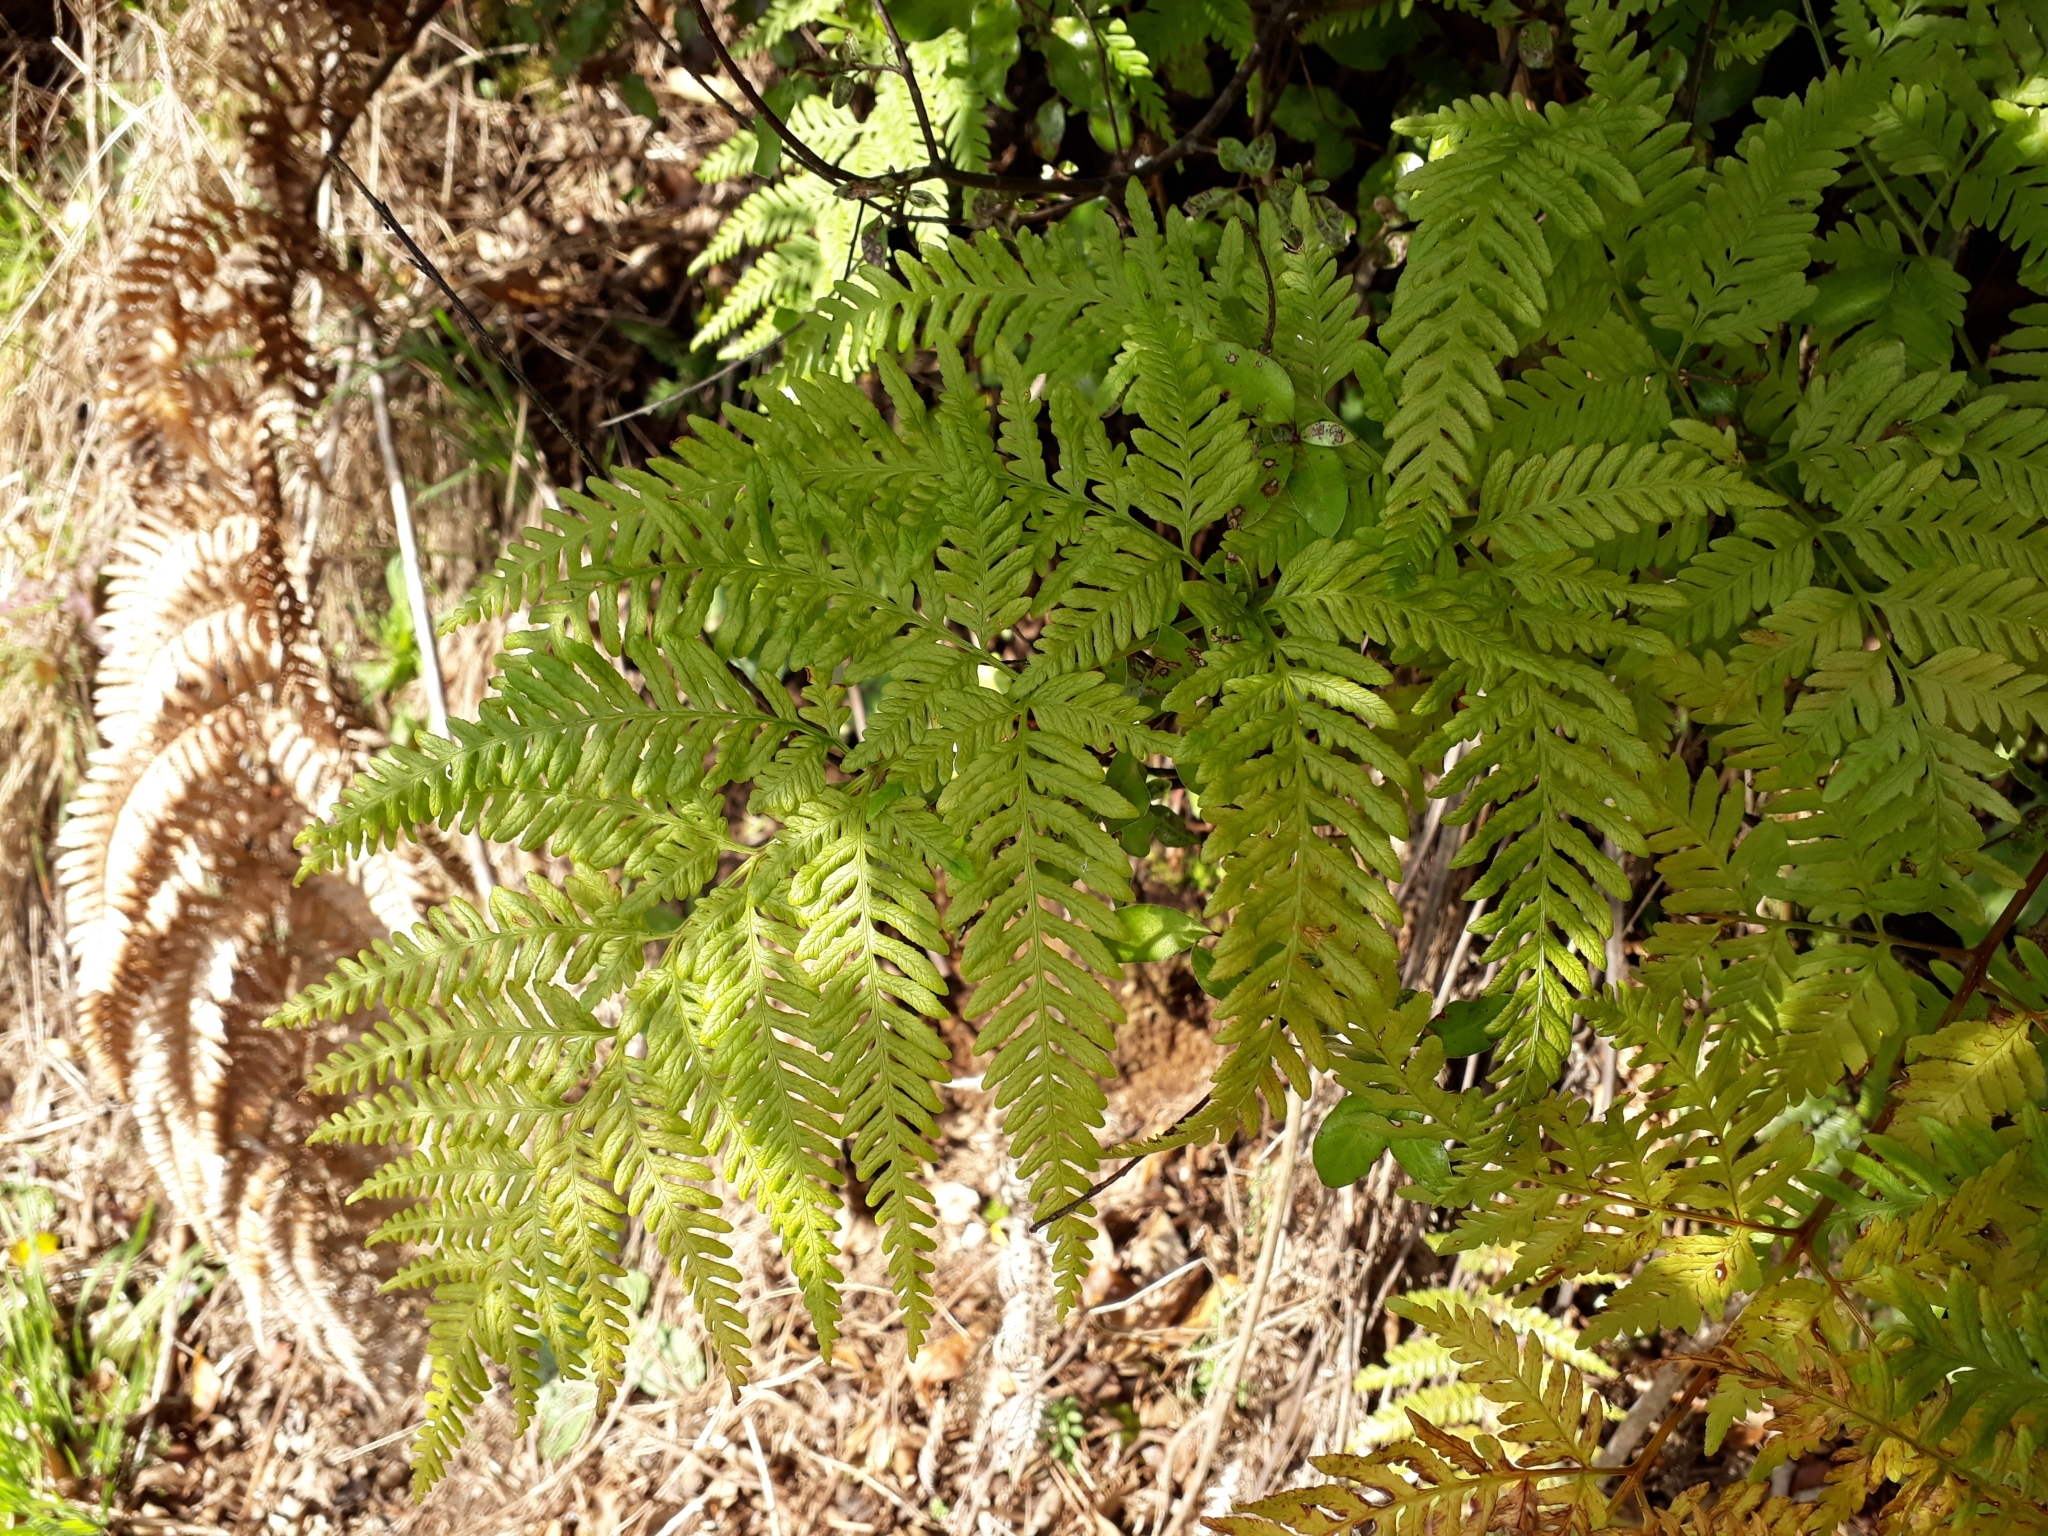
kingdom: Plantae
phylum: Tracheophyta
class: Polypodiopsida
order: Polypodiales
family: Pteridaceae
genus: Pteris
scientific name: Pteris tremula
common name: Australian brake
